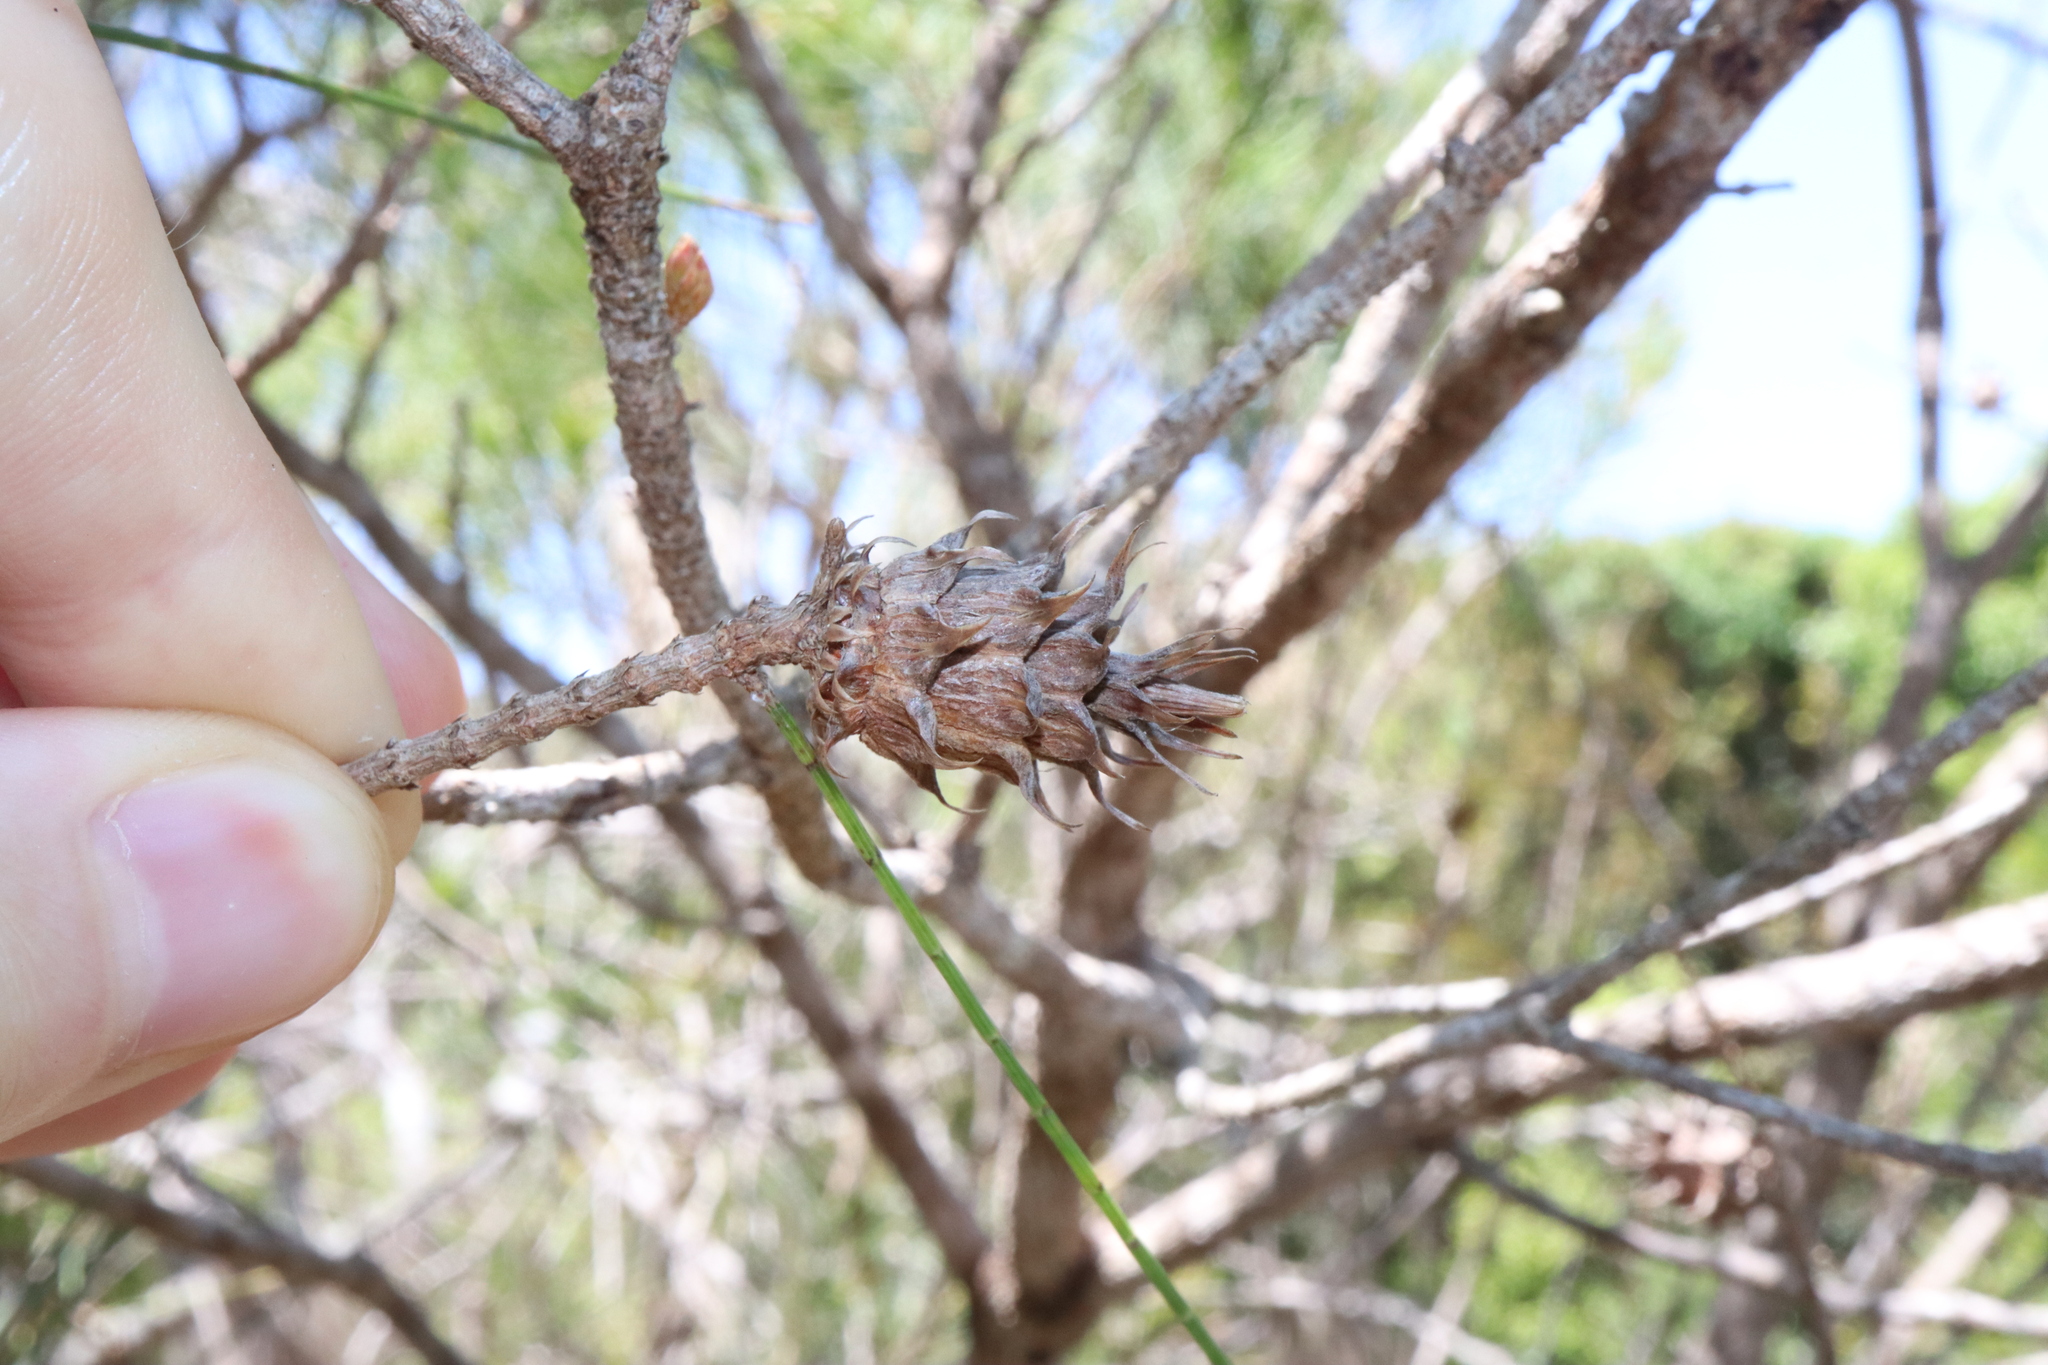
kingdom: Animalia
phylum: Arthropoda
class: Insecta
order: Hemiptera
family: Eriococcidae
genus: Cylindrococcus
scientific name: Cylindrococcus spiniferus
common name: Casuarina gall
